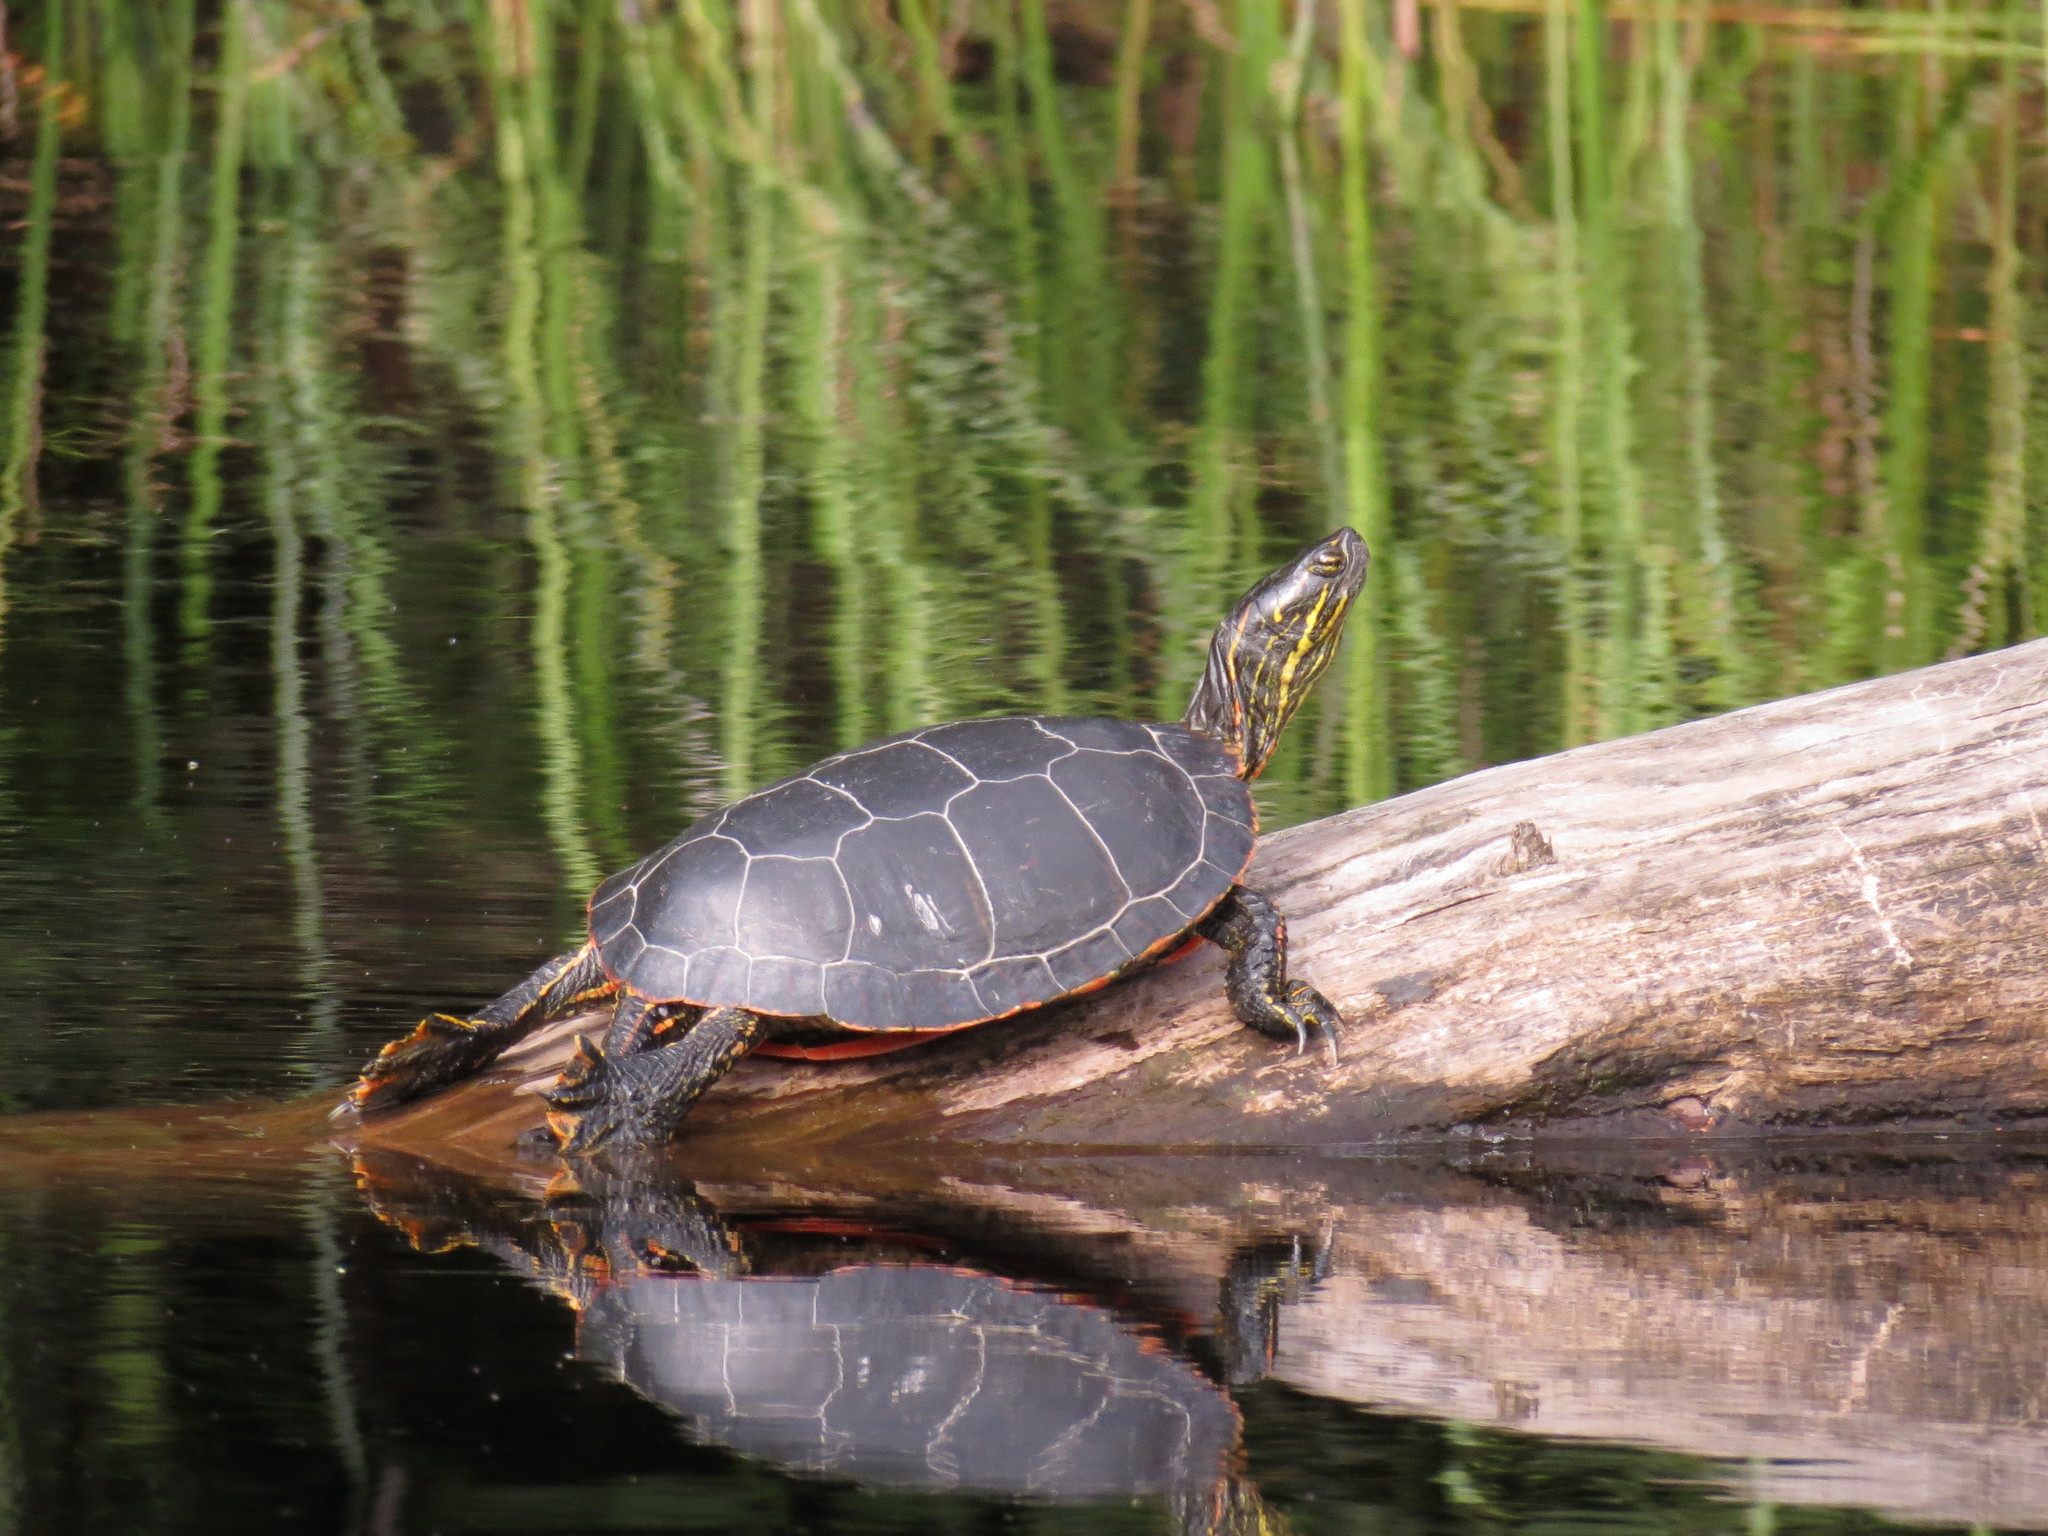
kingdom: Animalia
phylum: Chordata
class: Testudines
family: Emydidae
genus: Chrysemys
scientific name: Chrysemys picta
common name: Painted turtle
